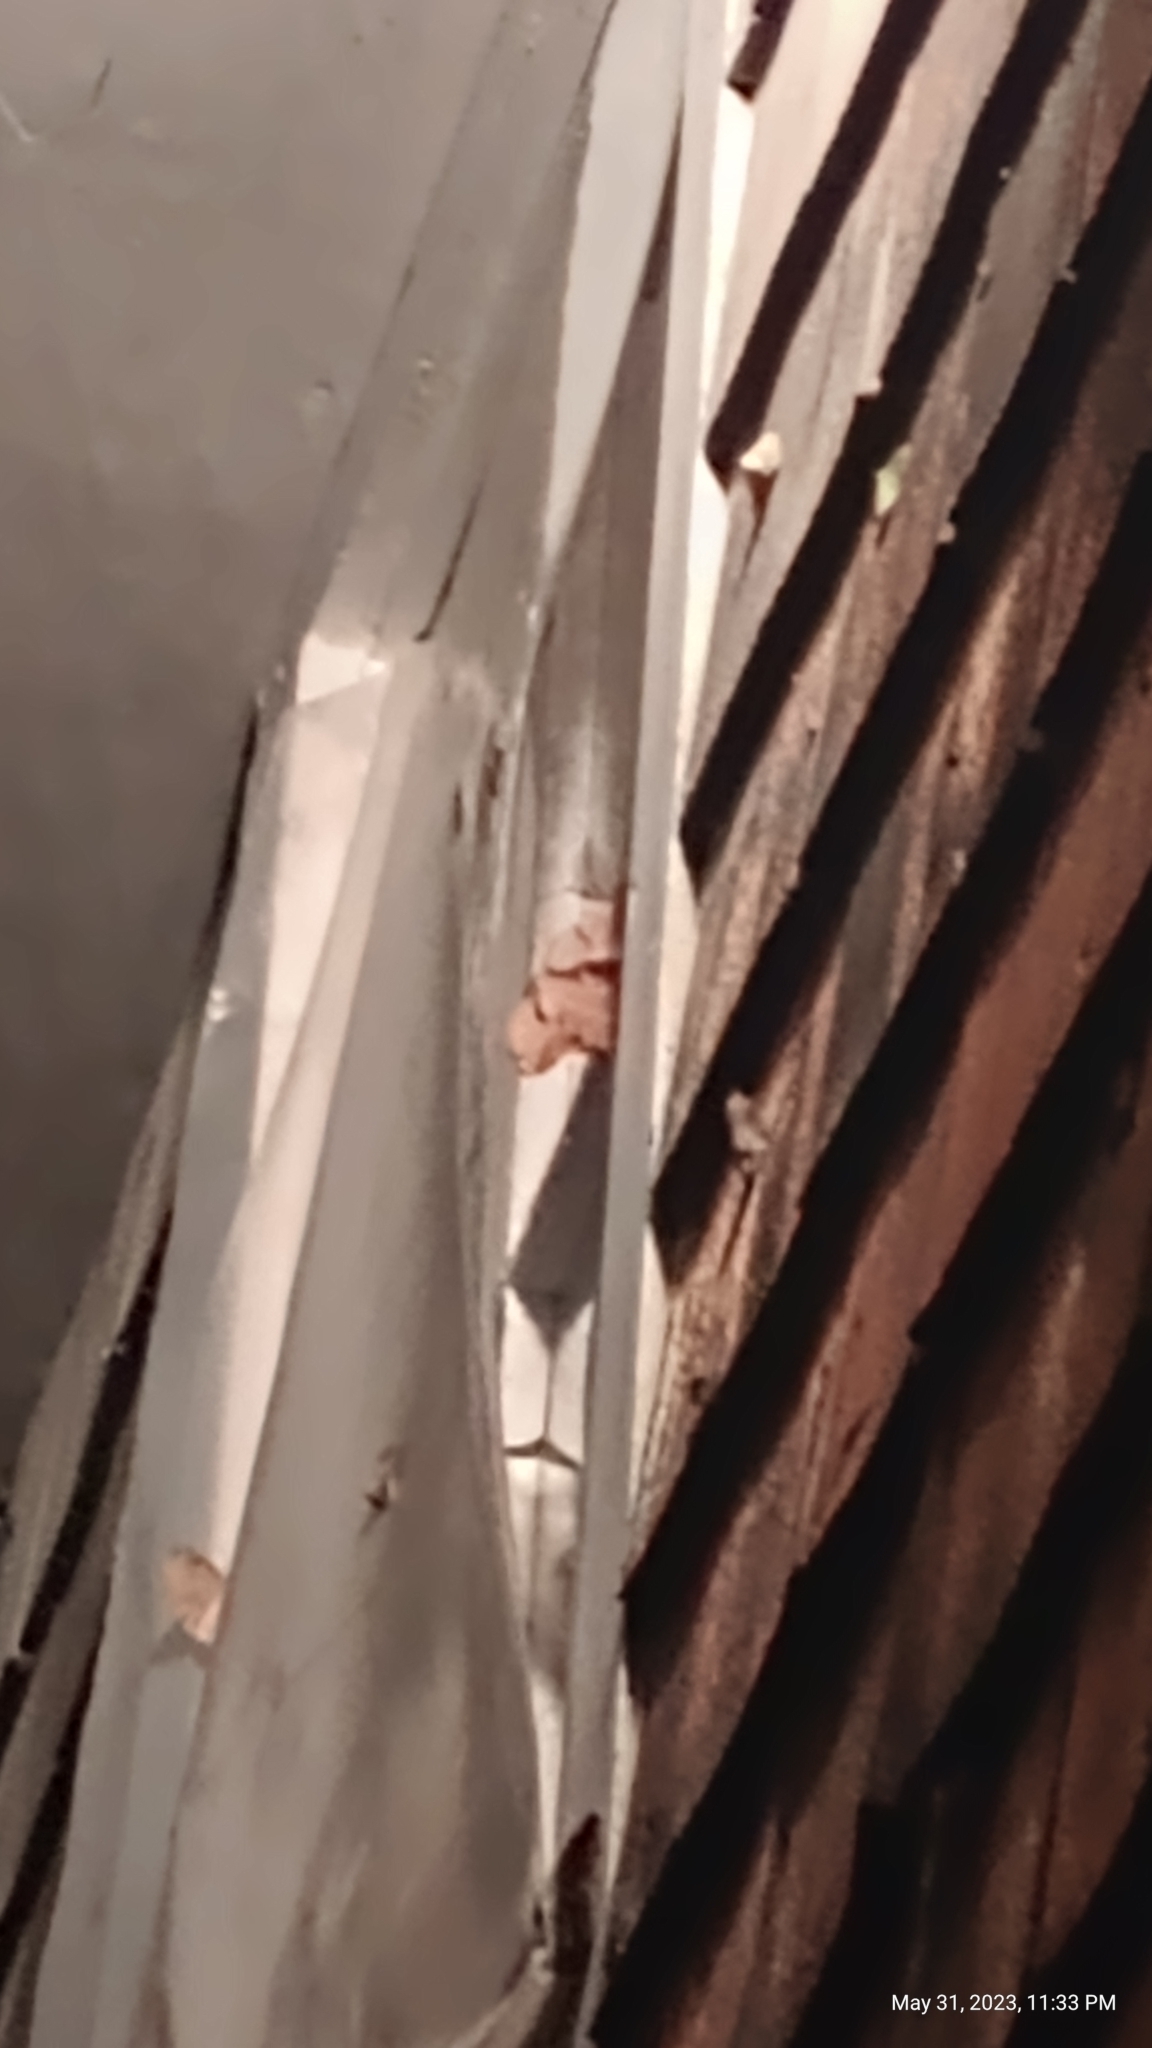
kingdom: Animalia
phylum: Arthropoda
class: Insecta
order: Lepidoptera
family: Saturniidae
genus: Antheraea
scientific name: Antheraea polyphemus
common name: Polyphemus moth
